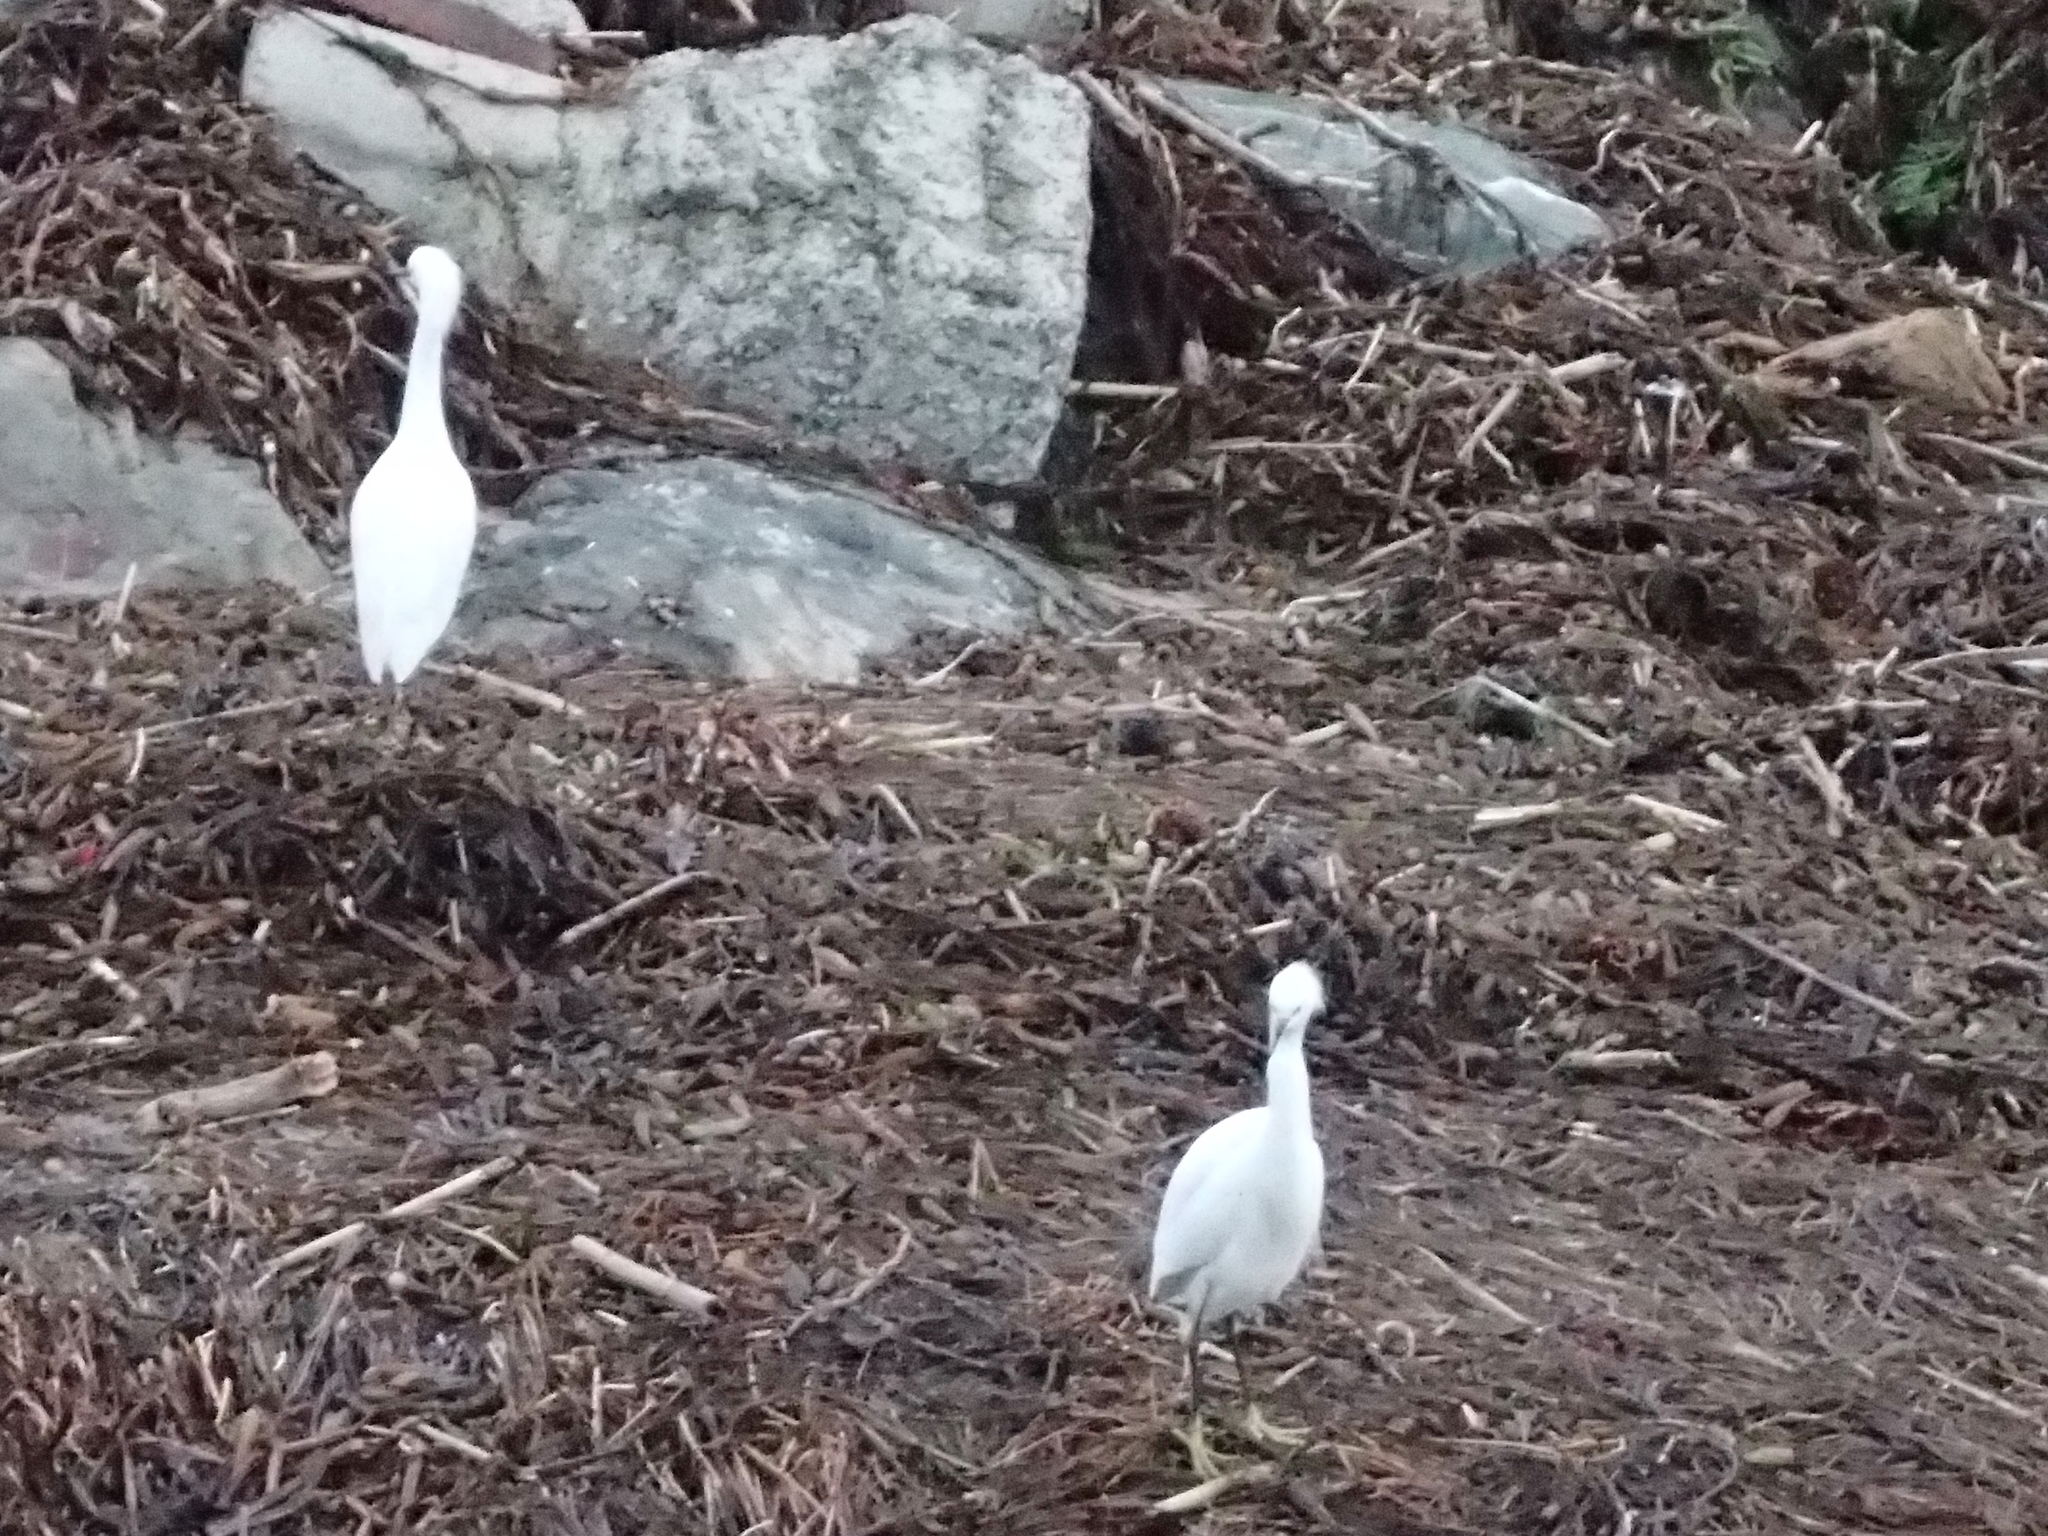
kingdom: Animalia
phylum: Chordata
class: Aves
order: Pelecaniformes
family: Ardeidae
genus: Egretta
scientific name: Egretta thula
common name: Snowy egret
